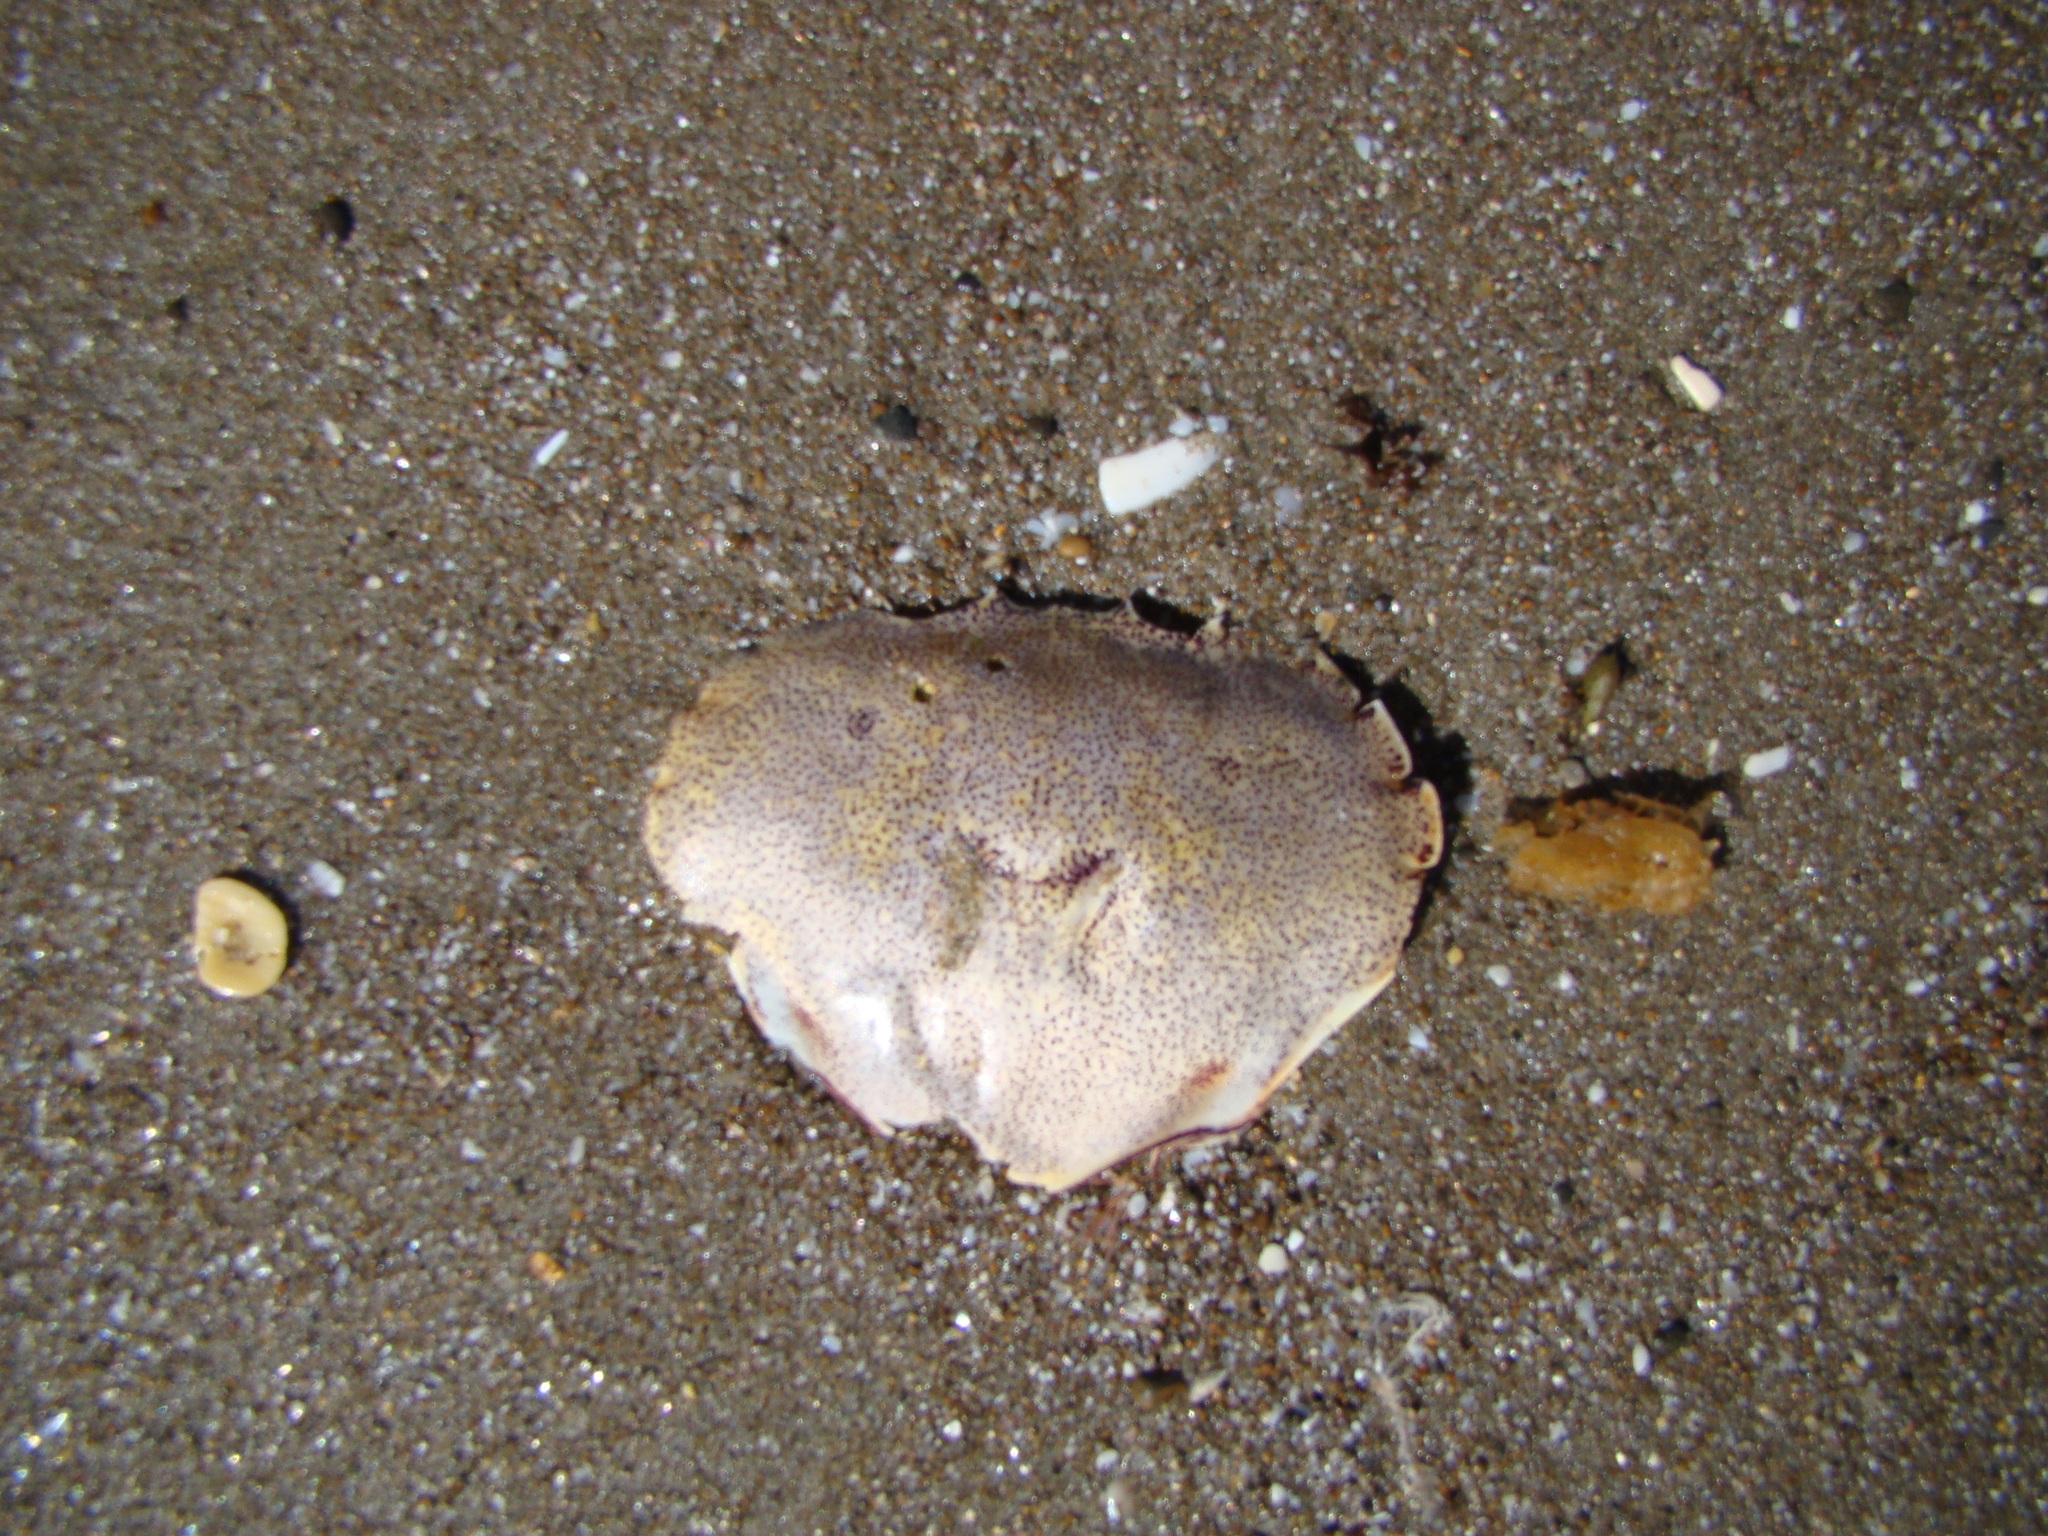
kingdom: Animalia
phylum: Arthropoda
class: Malacostraca
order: Decapoda
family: Ovalipidae
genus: Ovalipes
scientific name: Ovalipes catharus
